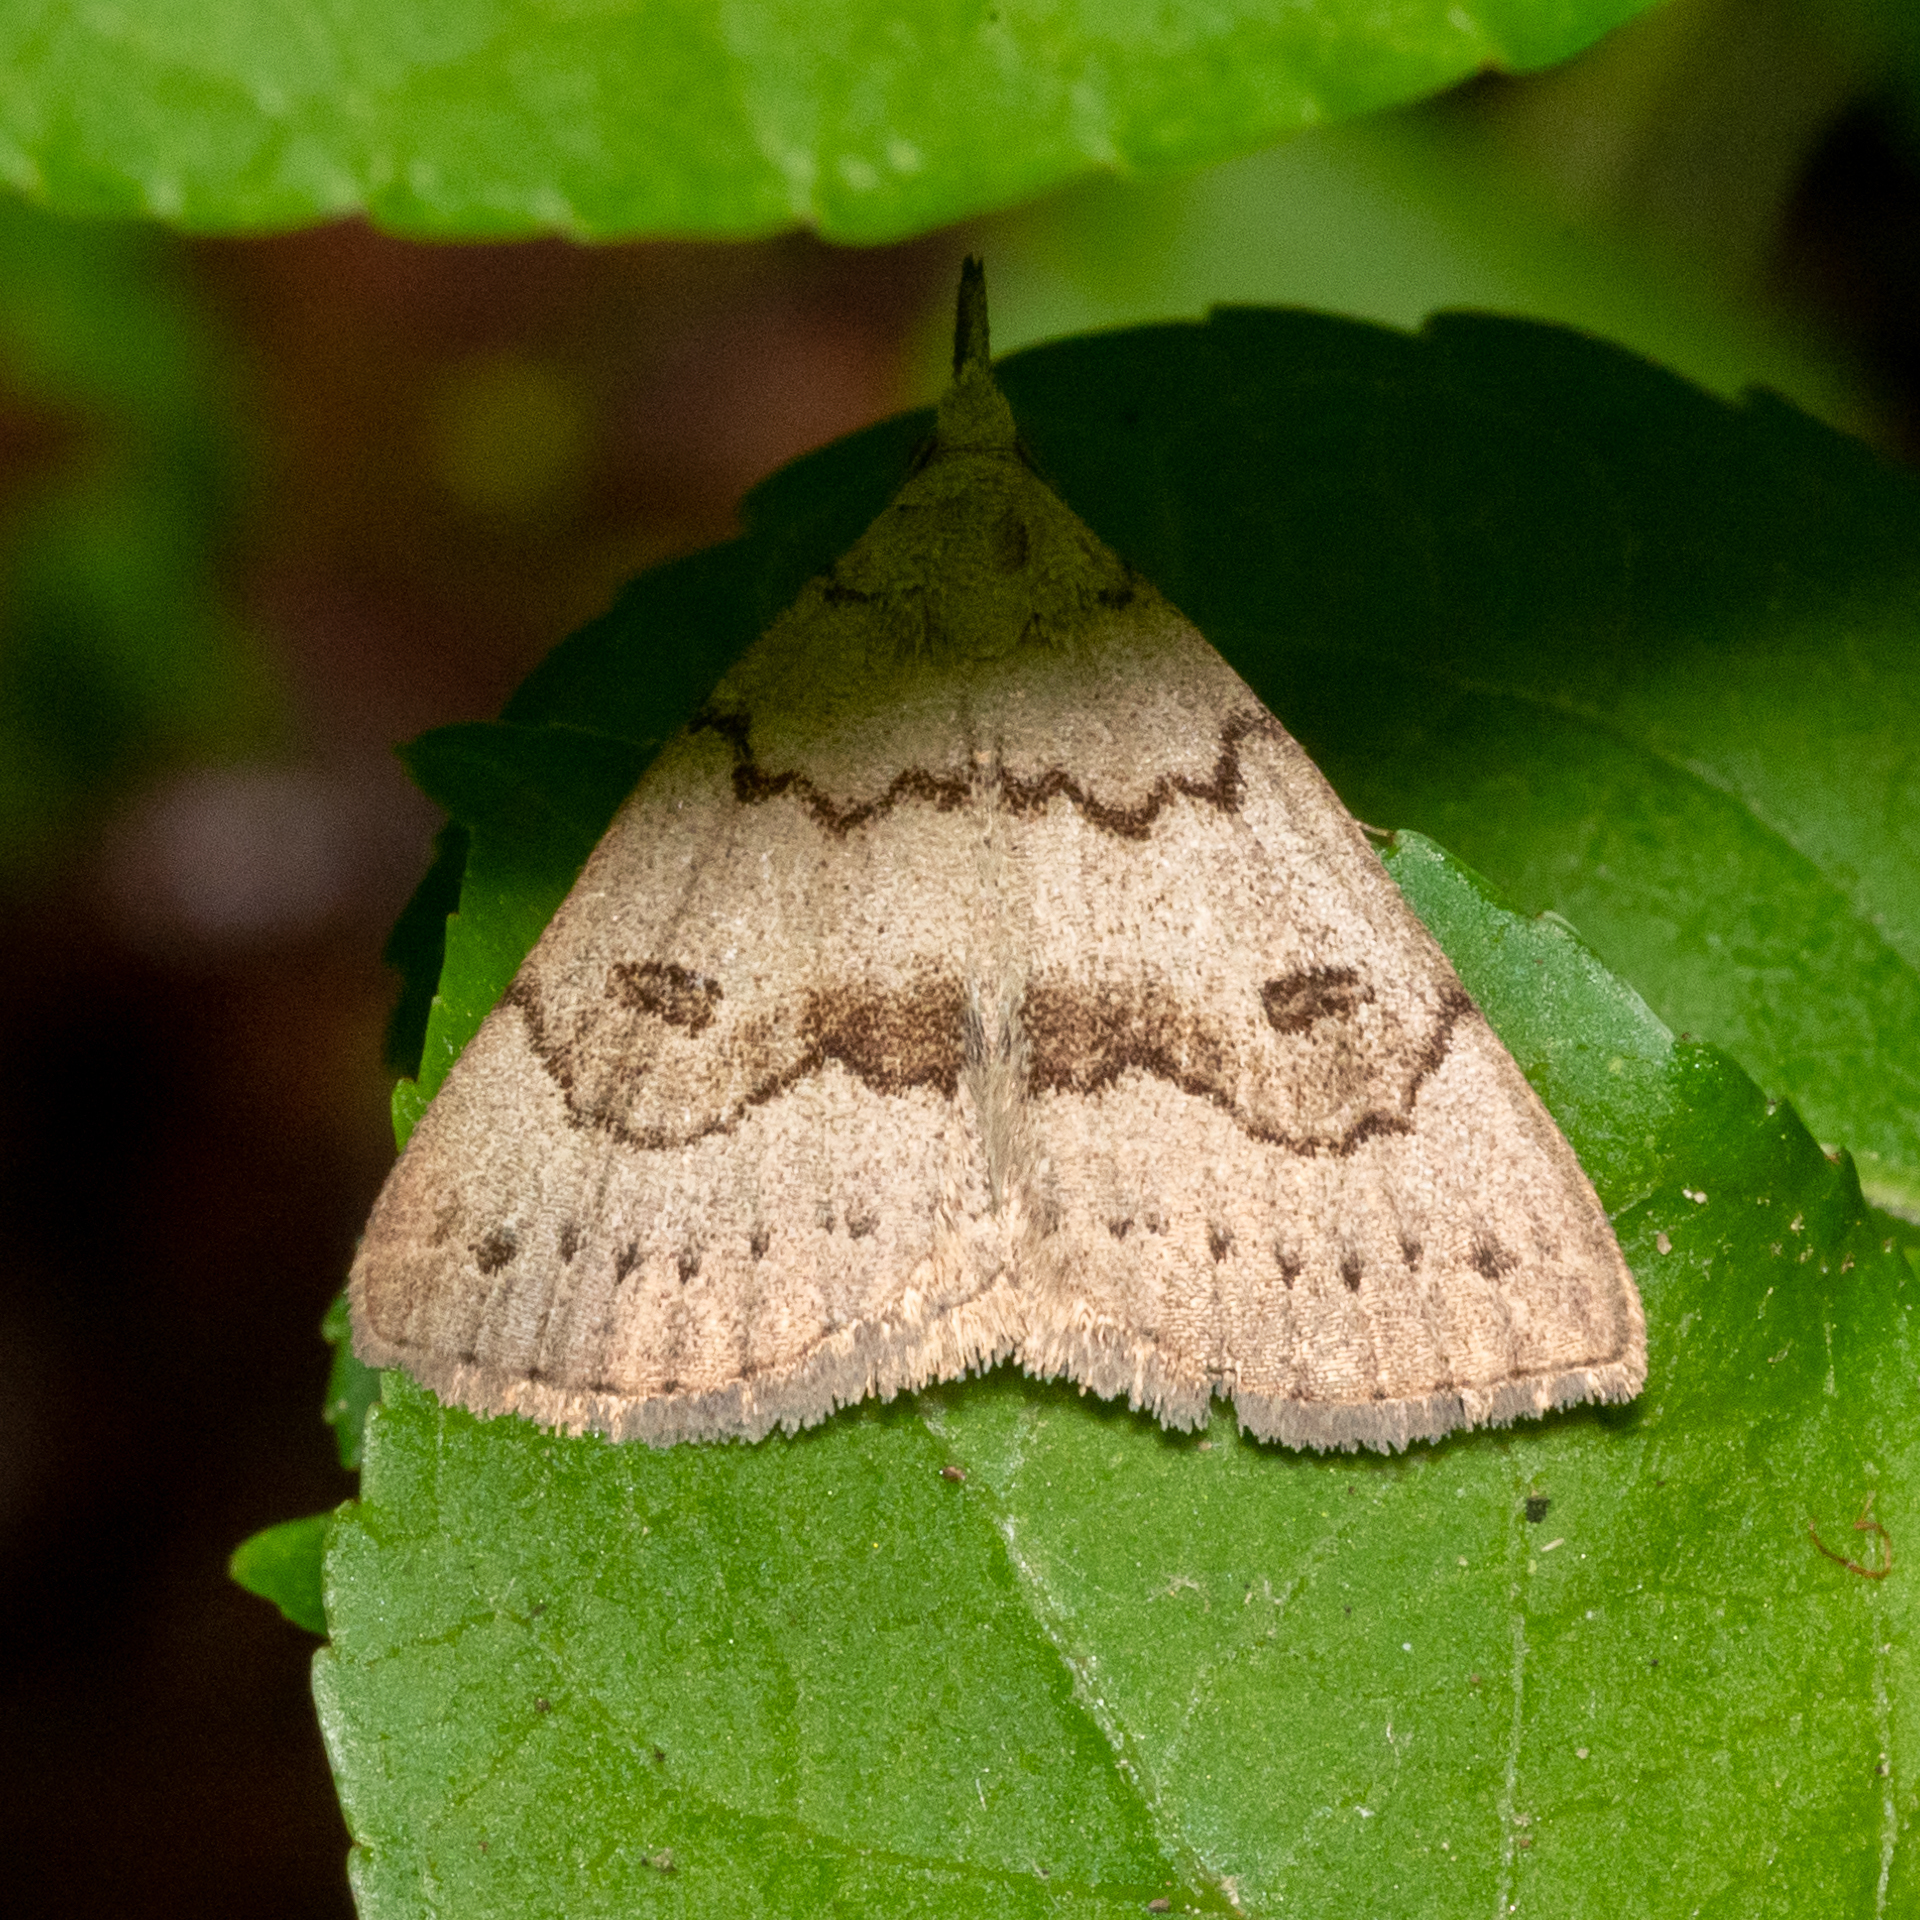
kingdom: Animalia
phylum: Arthropoda
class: Insecta
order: Lepidoptera
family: Erebidae
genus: Macrochilo
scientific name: Macrochilo morbidalis
